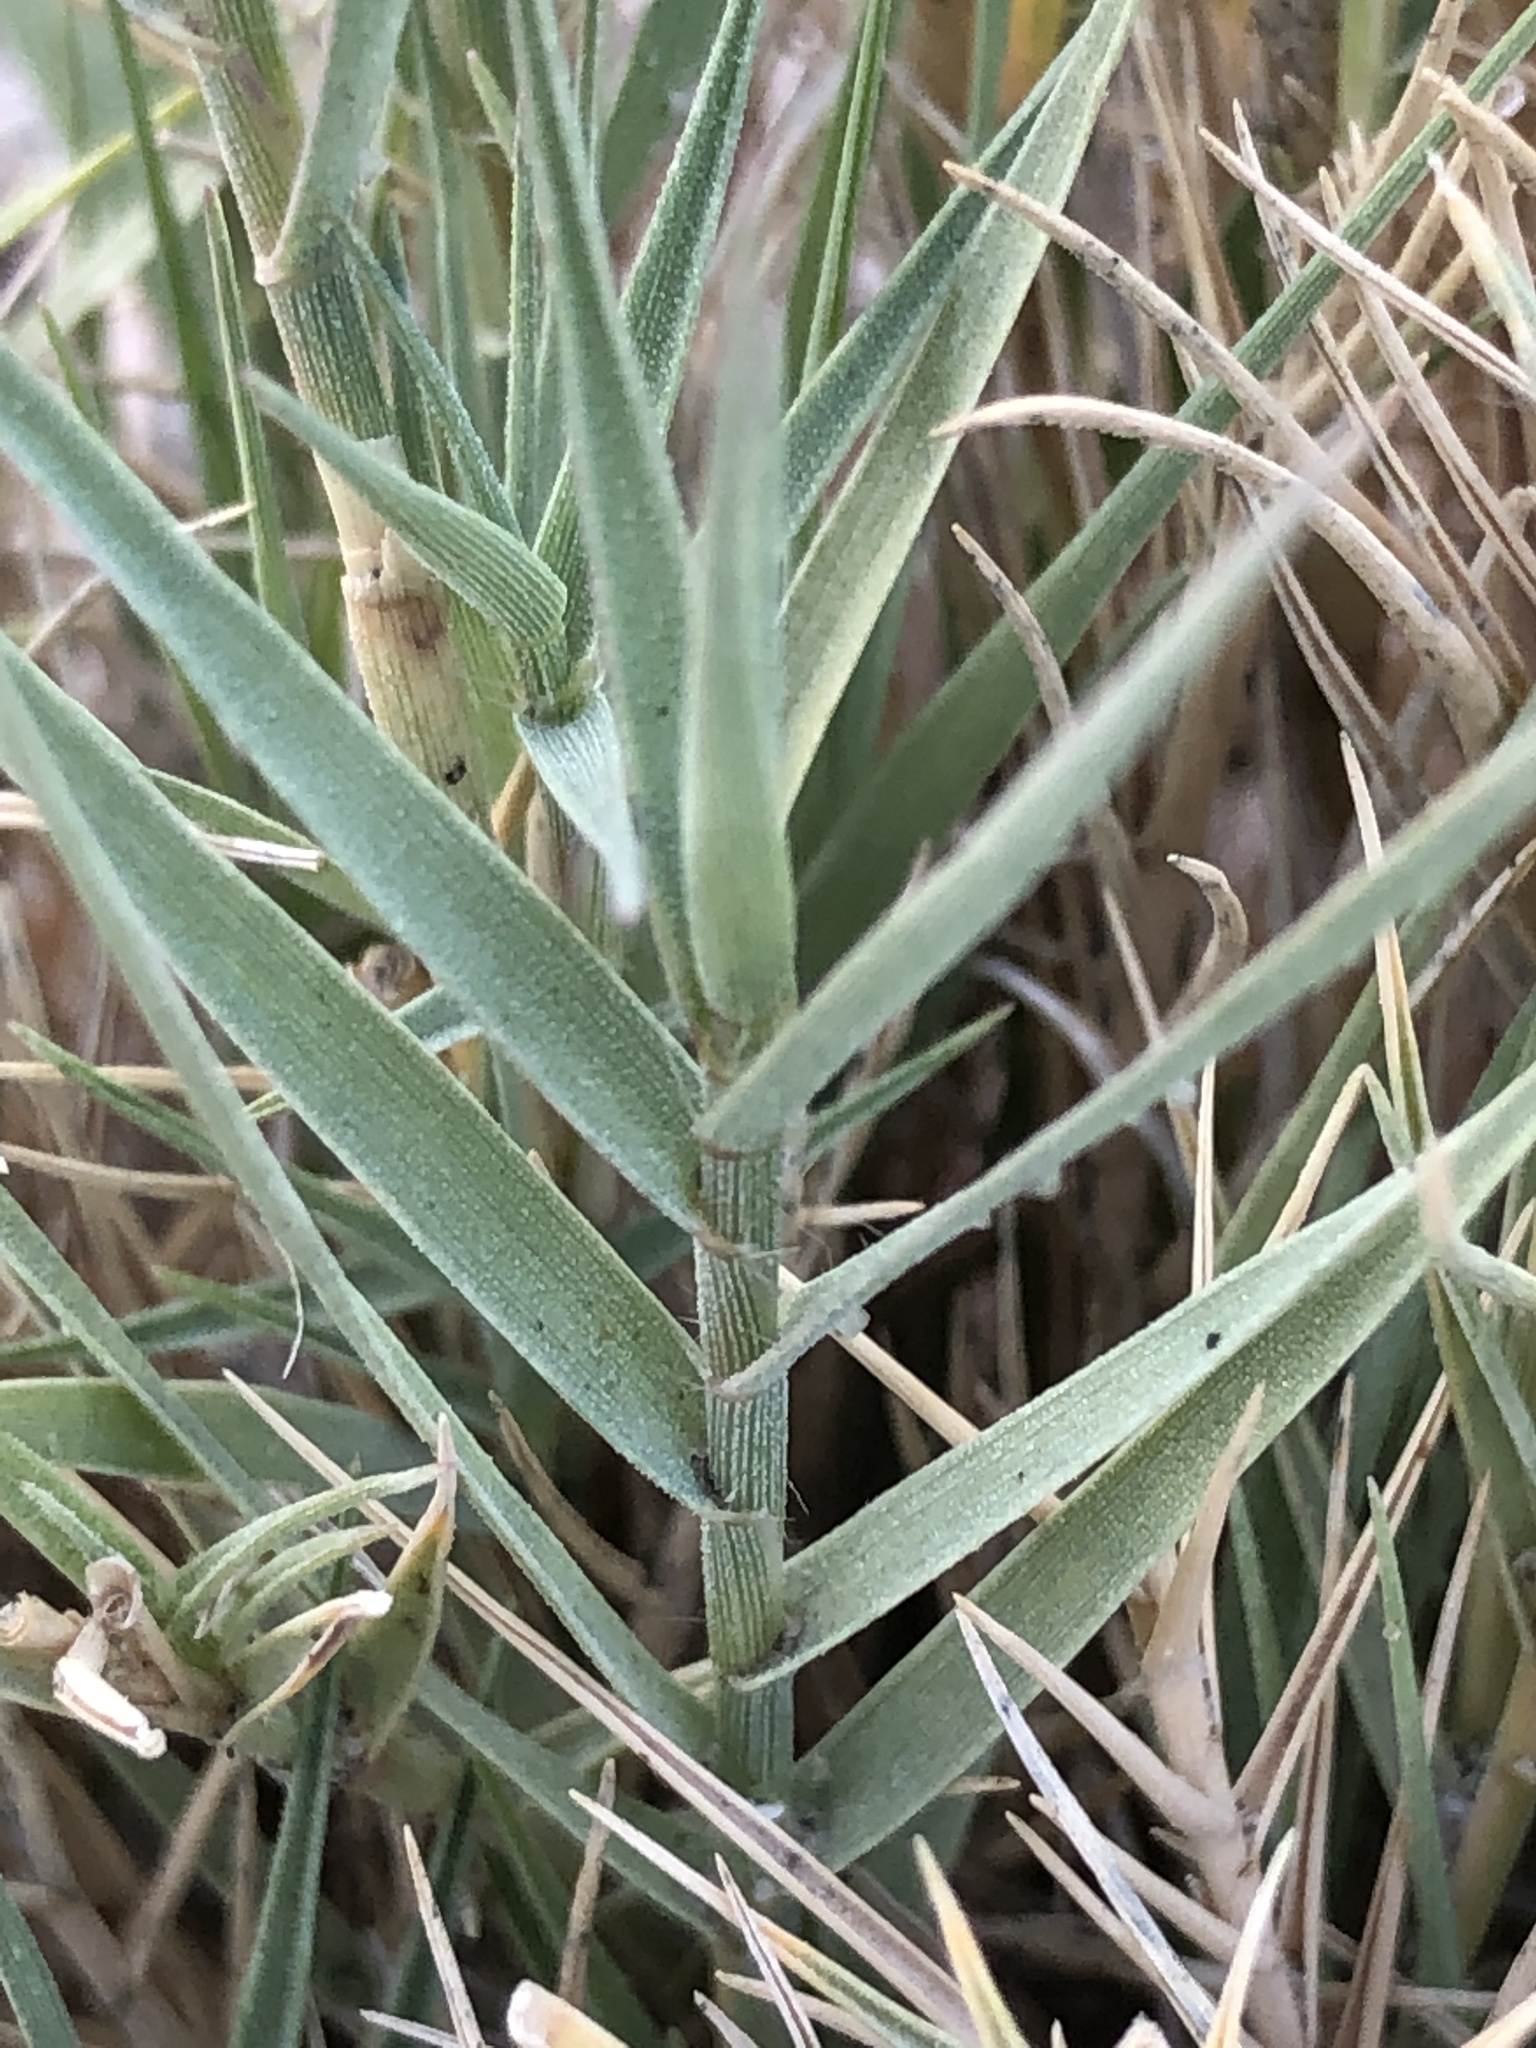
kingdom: Plantae
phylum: Tracheophyta
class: Liliopsida
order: Poales
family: Poaceae
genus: Distichlis
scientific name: Distichlis spicata
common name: Saltgrass
